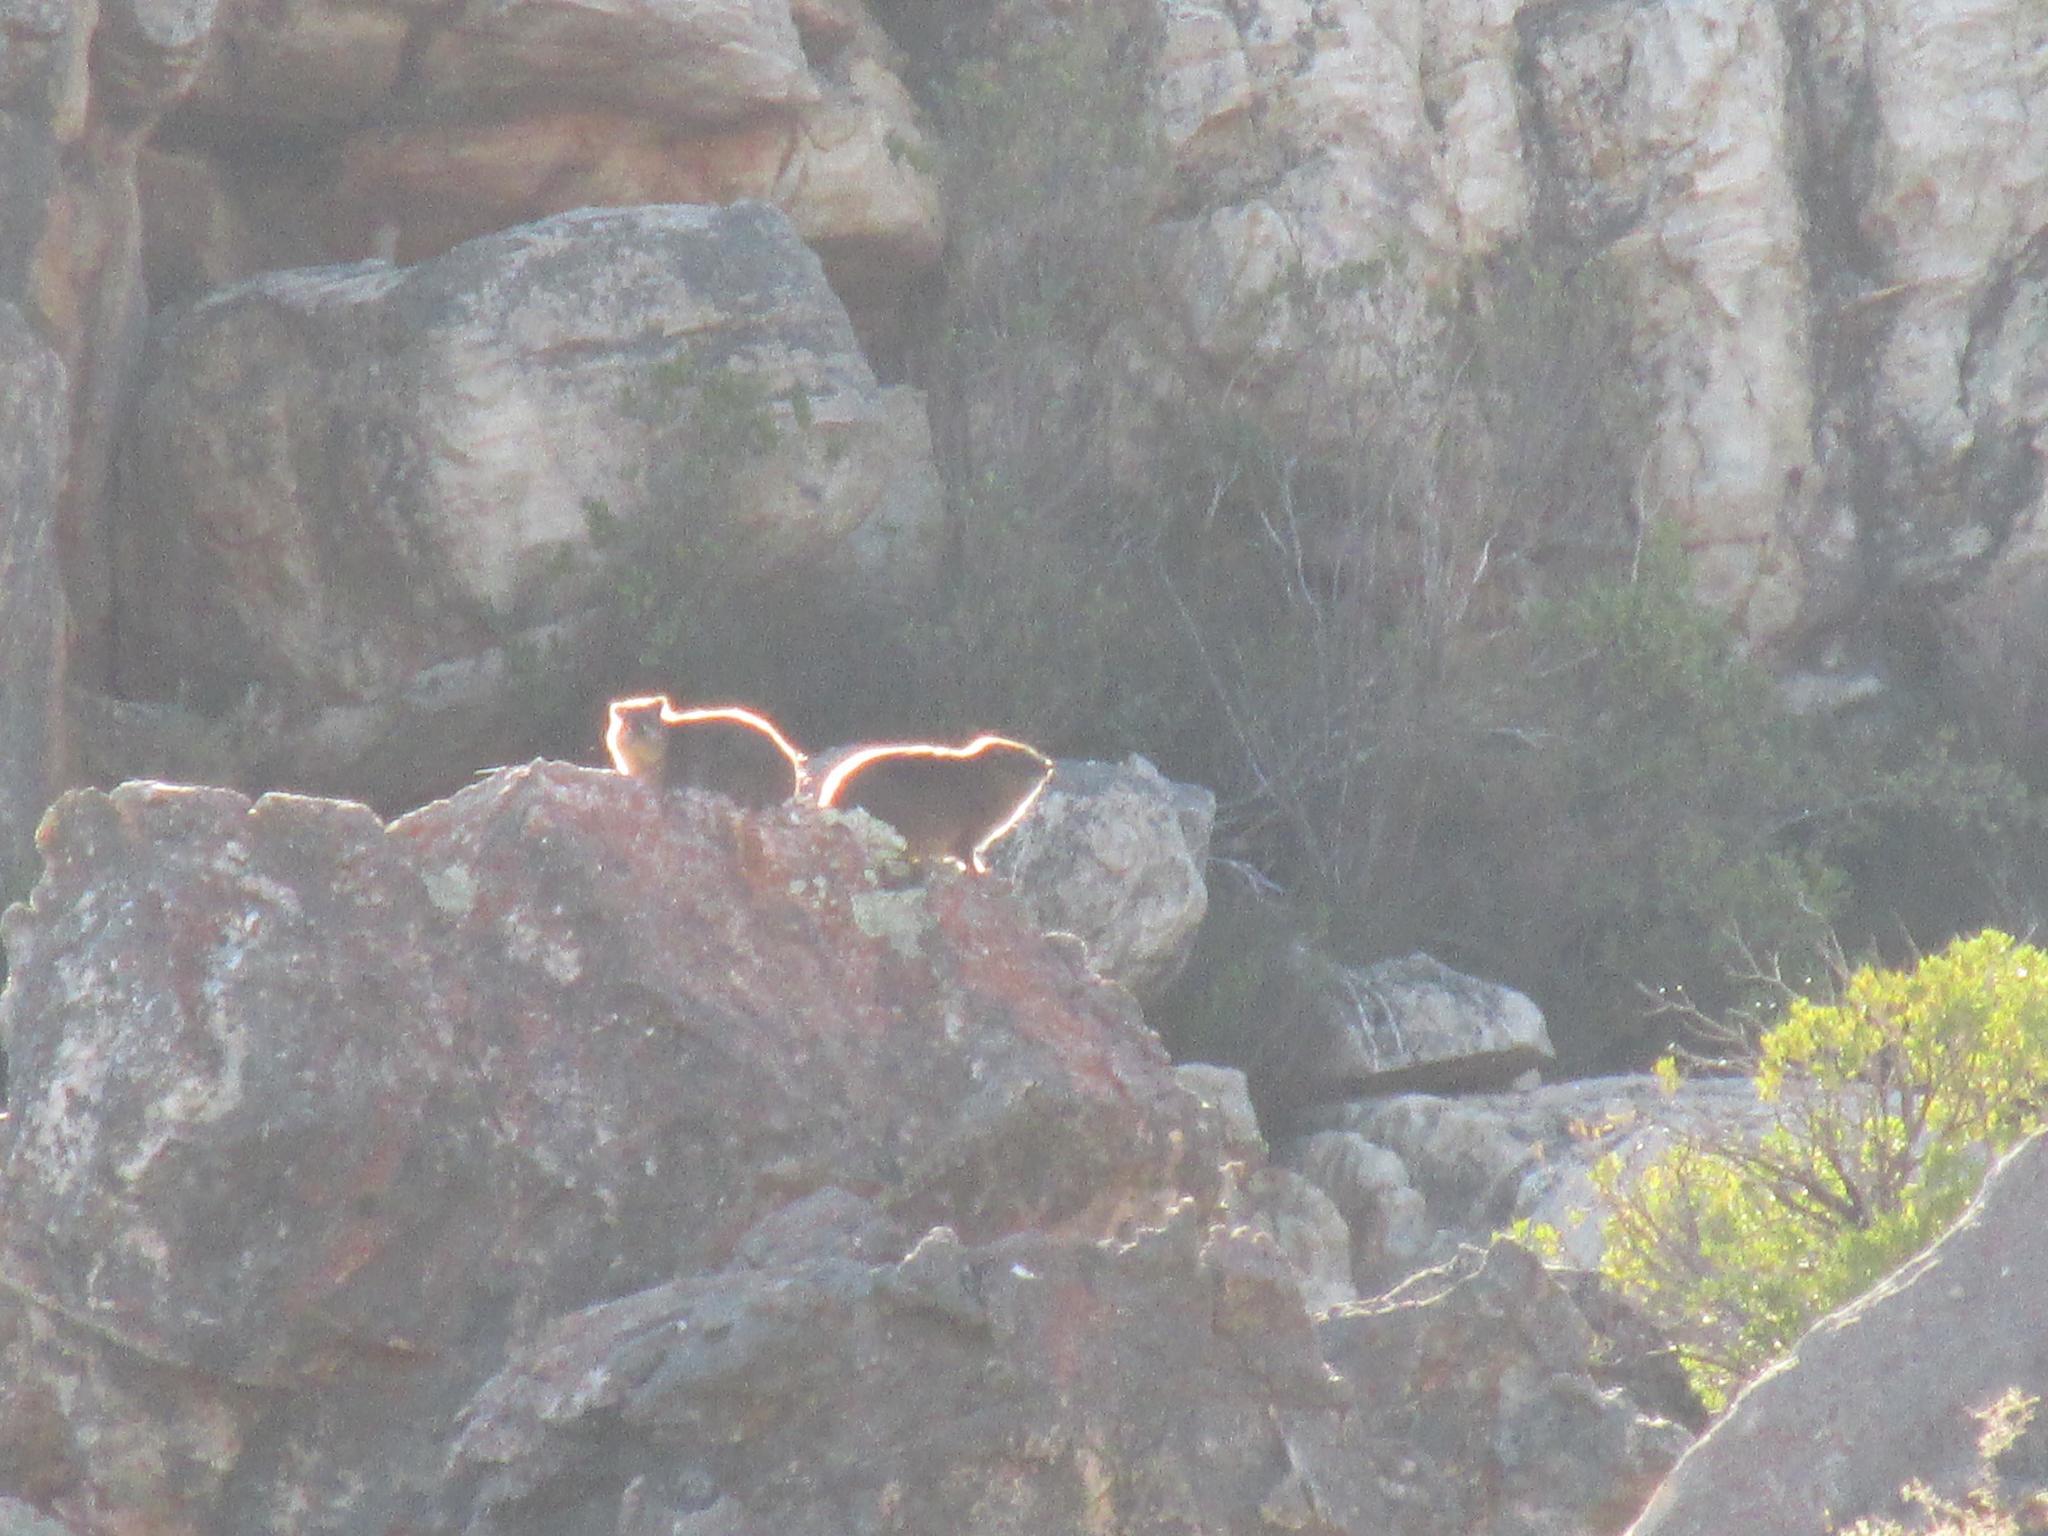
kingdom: Animalia
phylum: Chordata
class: Mammalia
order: Hyracoidea
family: Procaviidae
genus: Procavia
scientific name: Procavia capensis
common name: Rock hyrax
